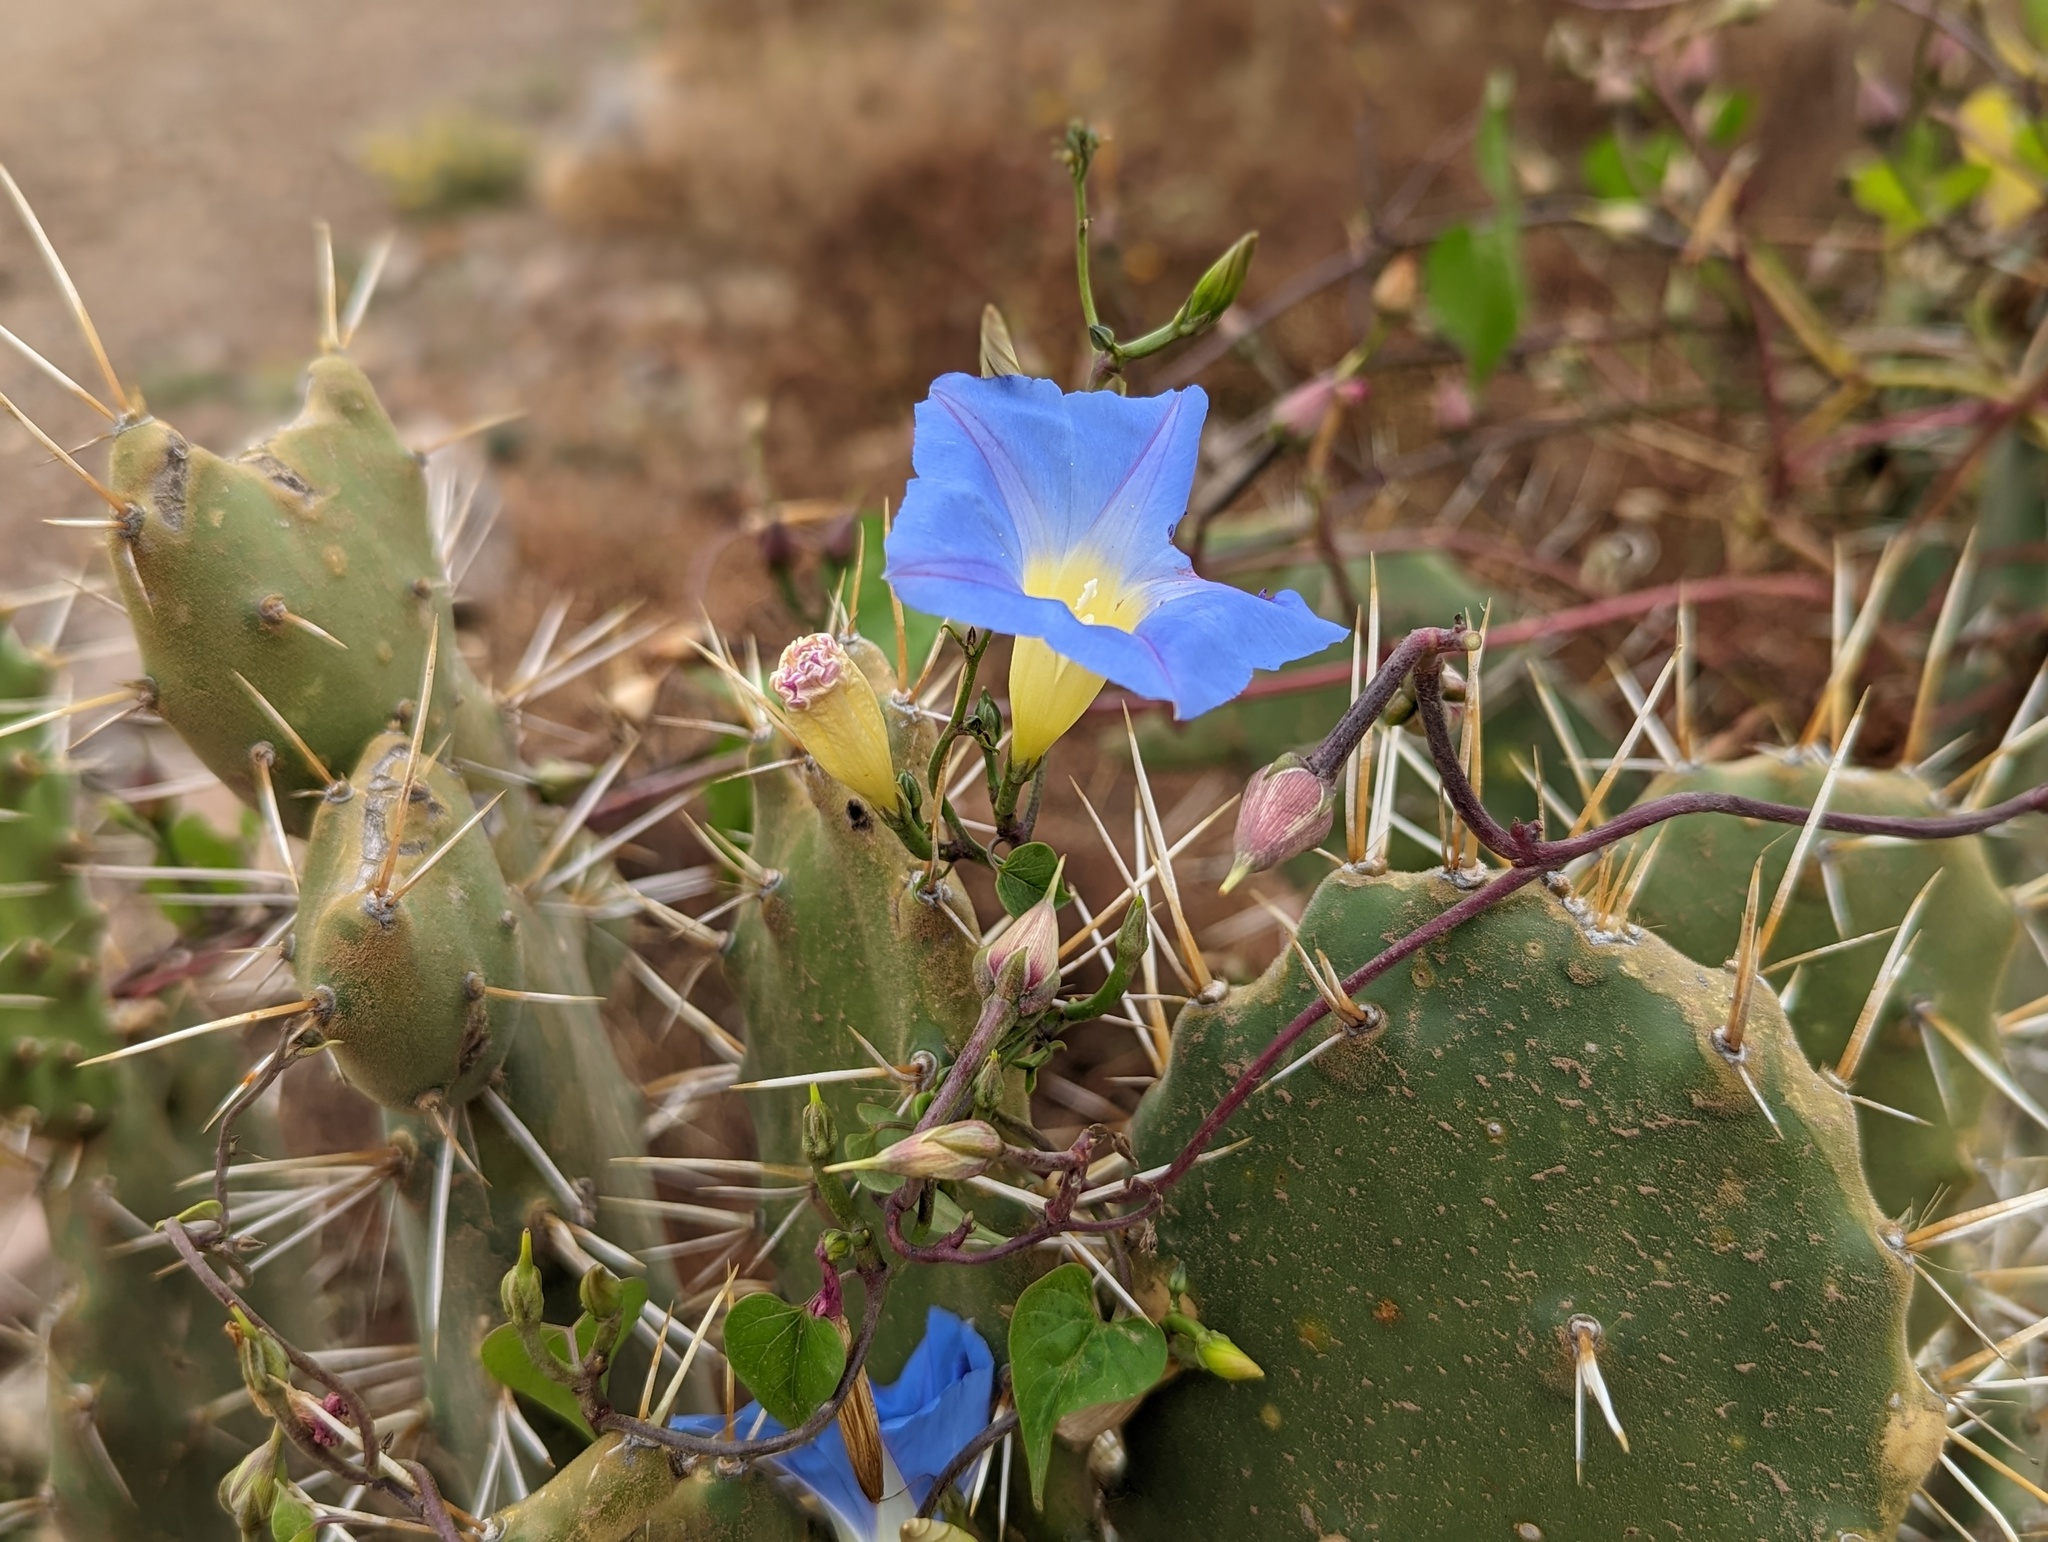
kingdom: Plantae
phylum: Tracheophyta
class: Magnoliopsida
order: Solanales
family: Convolvulaceae
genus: Ipomoea
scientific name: Ipomoea tricolor
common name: Morning-glory
